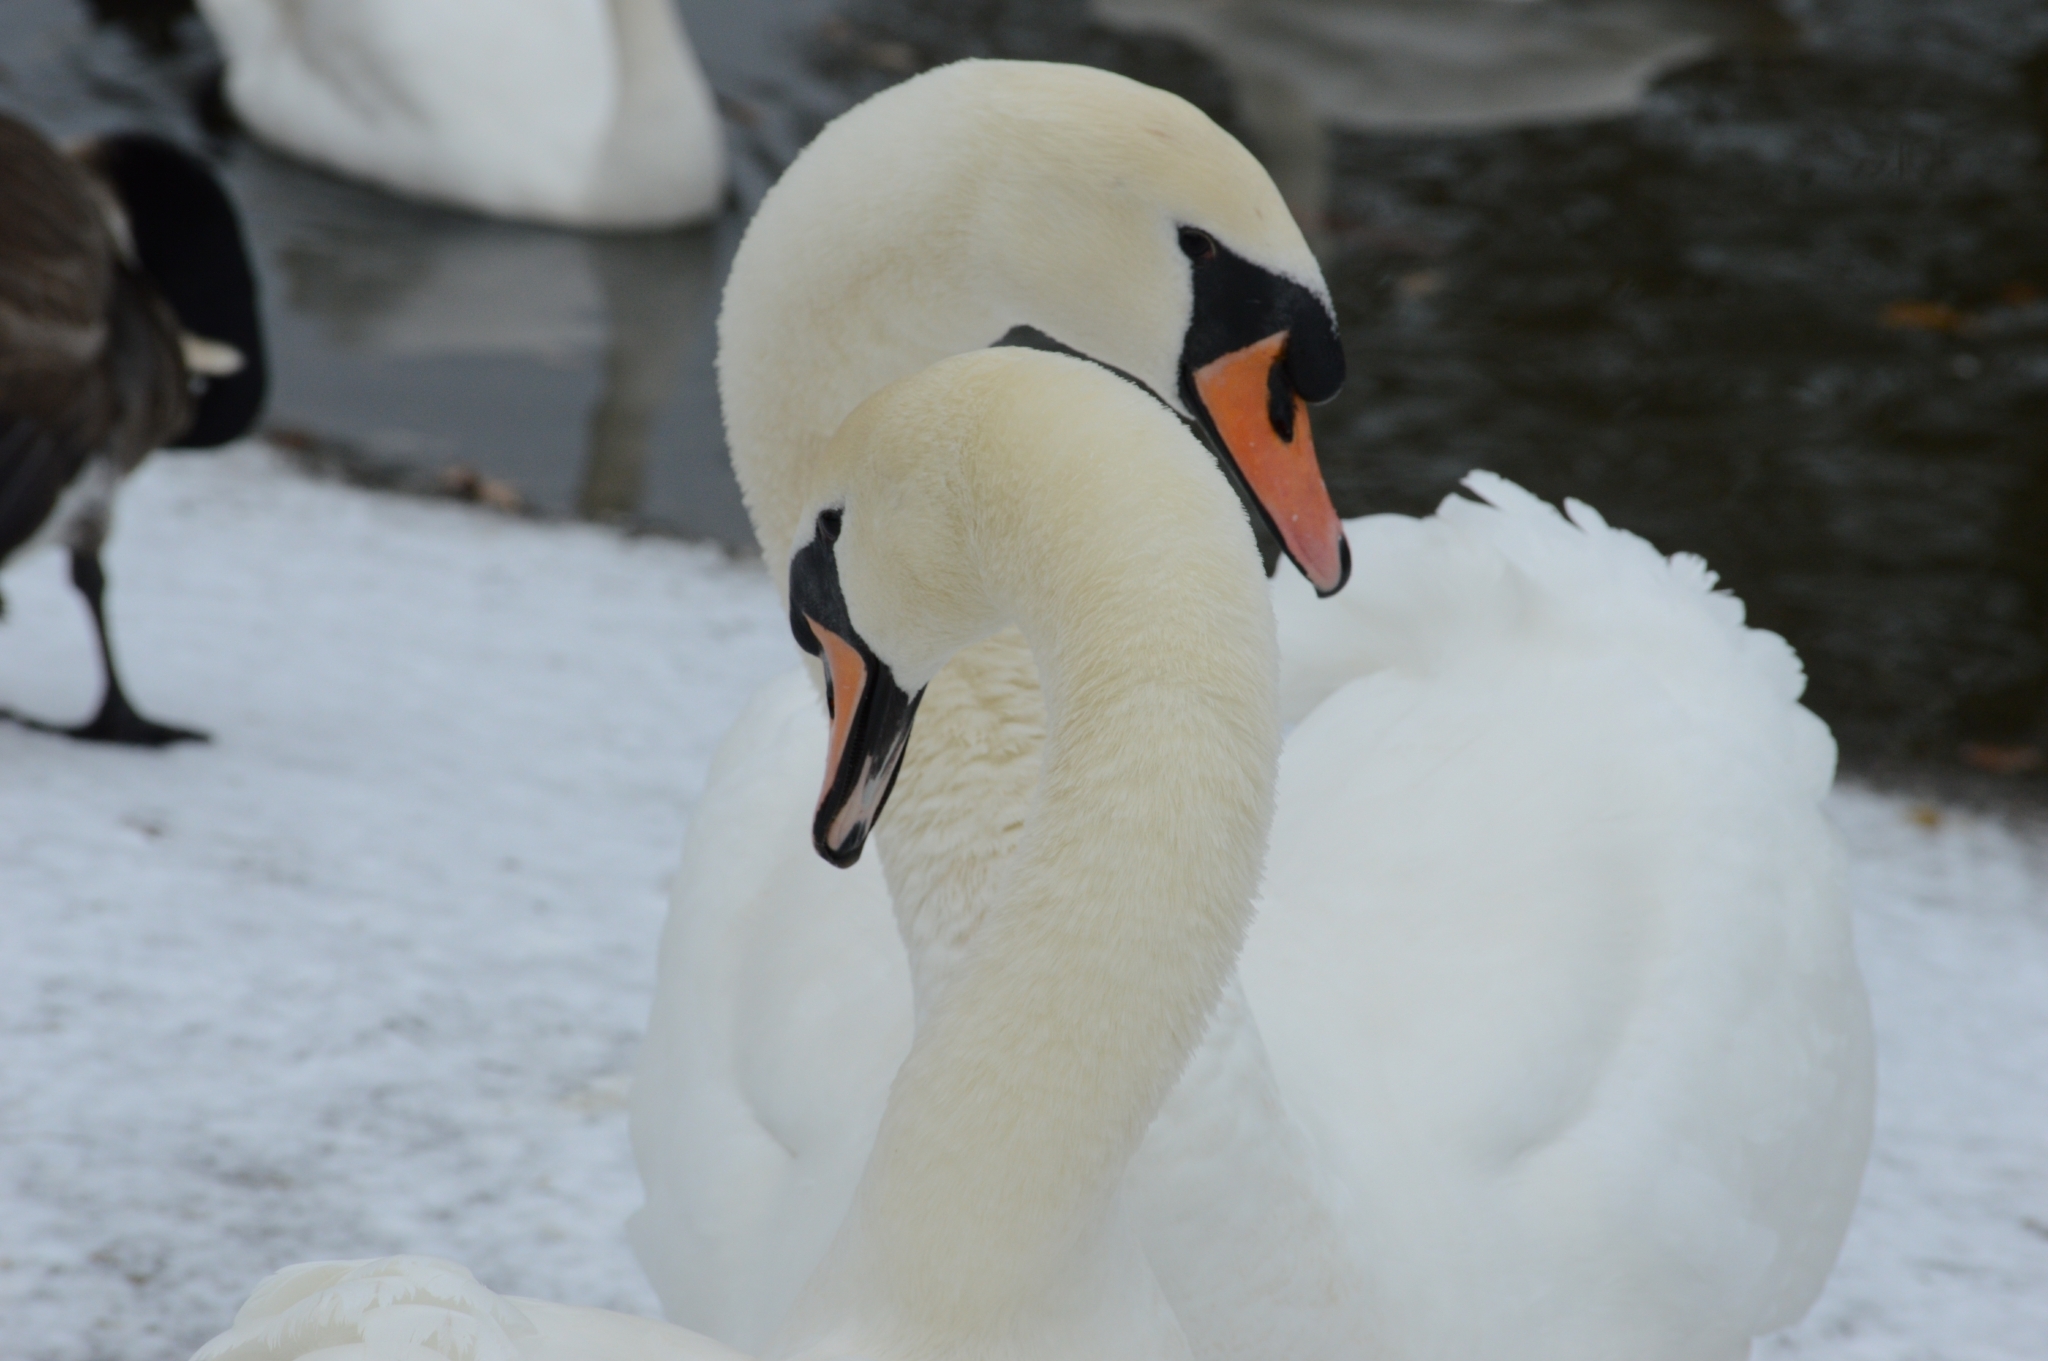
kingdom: Animalia
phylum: Chordata
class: Aves
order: Anseriformes
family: Anatidae
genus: Cygnus
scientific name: Cygnus olor
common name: Mute swan
